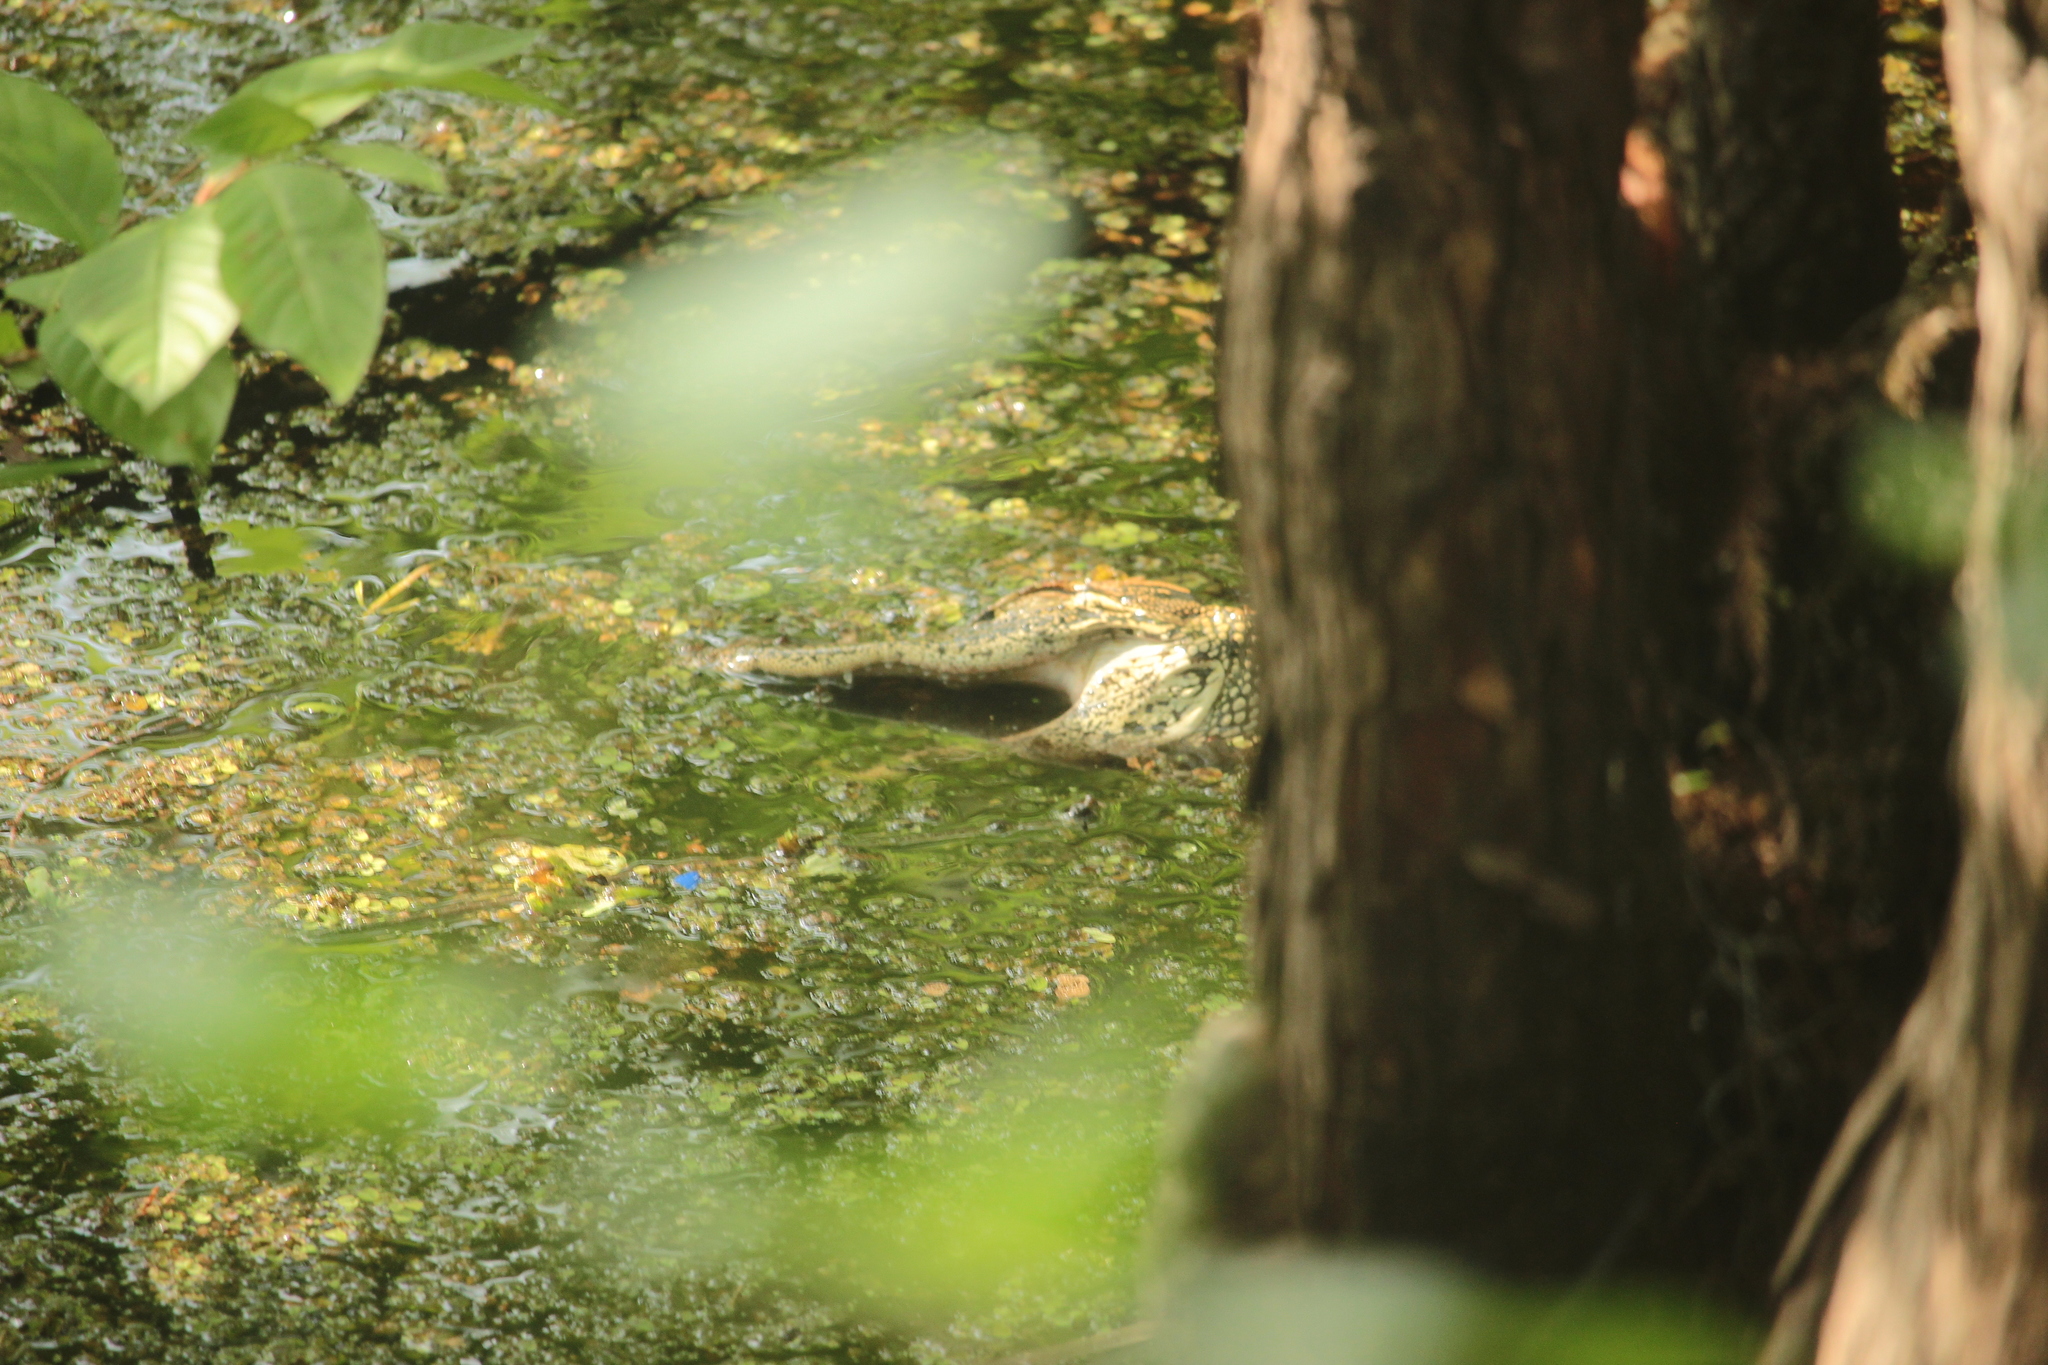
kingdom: Animalia
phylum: Chordata
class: Crocodylia
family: Alligatoridae
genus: Alligator
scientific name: Alligator mississippiensis
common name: American alligator
